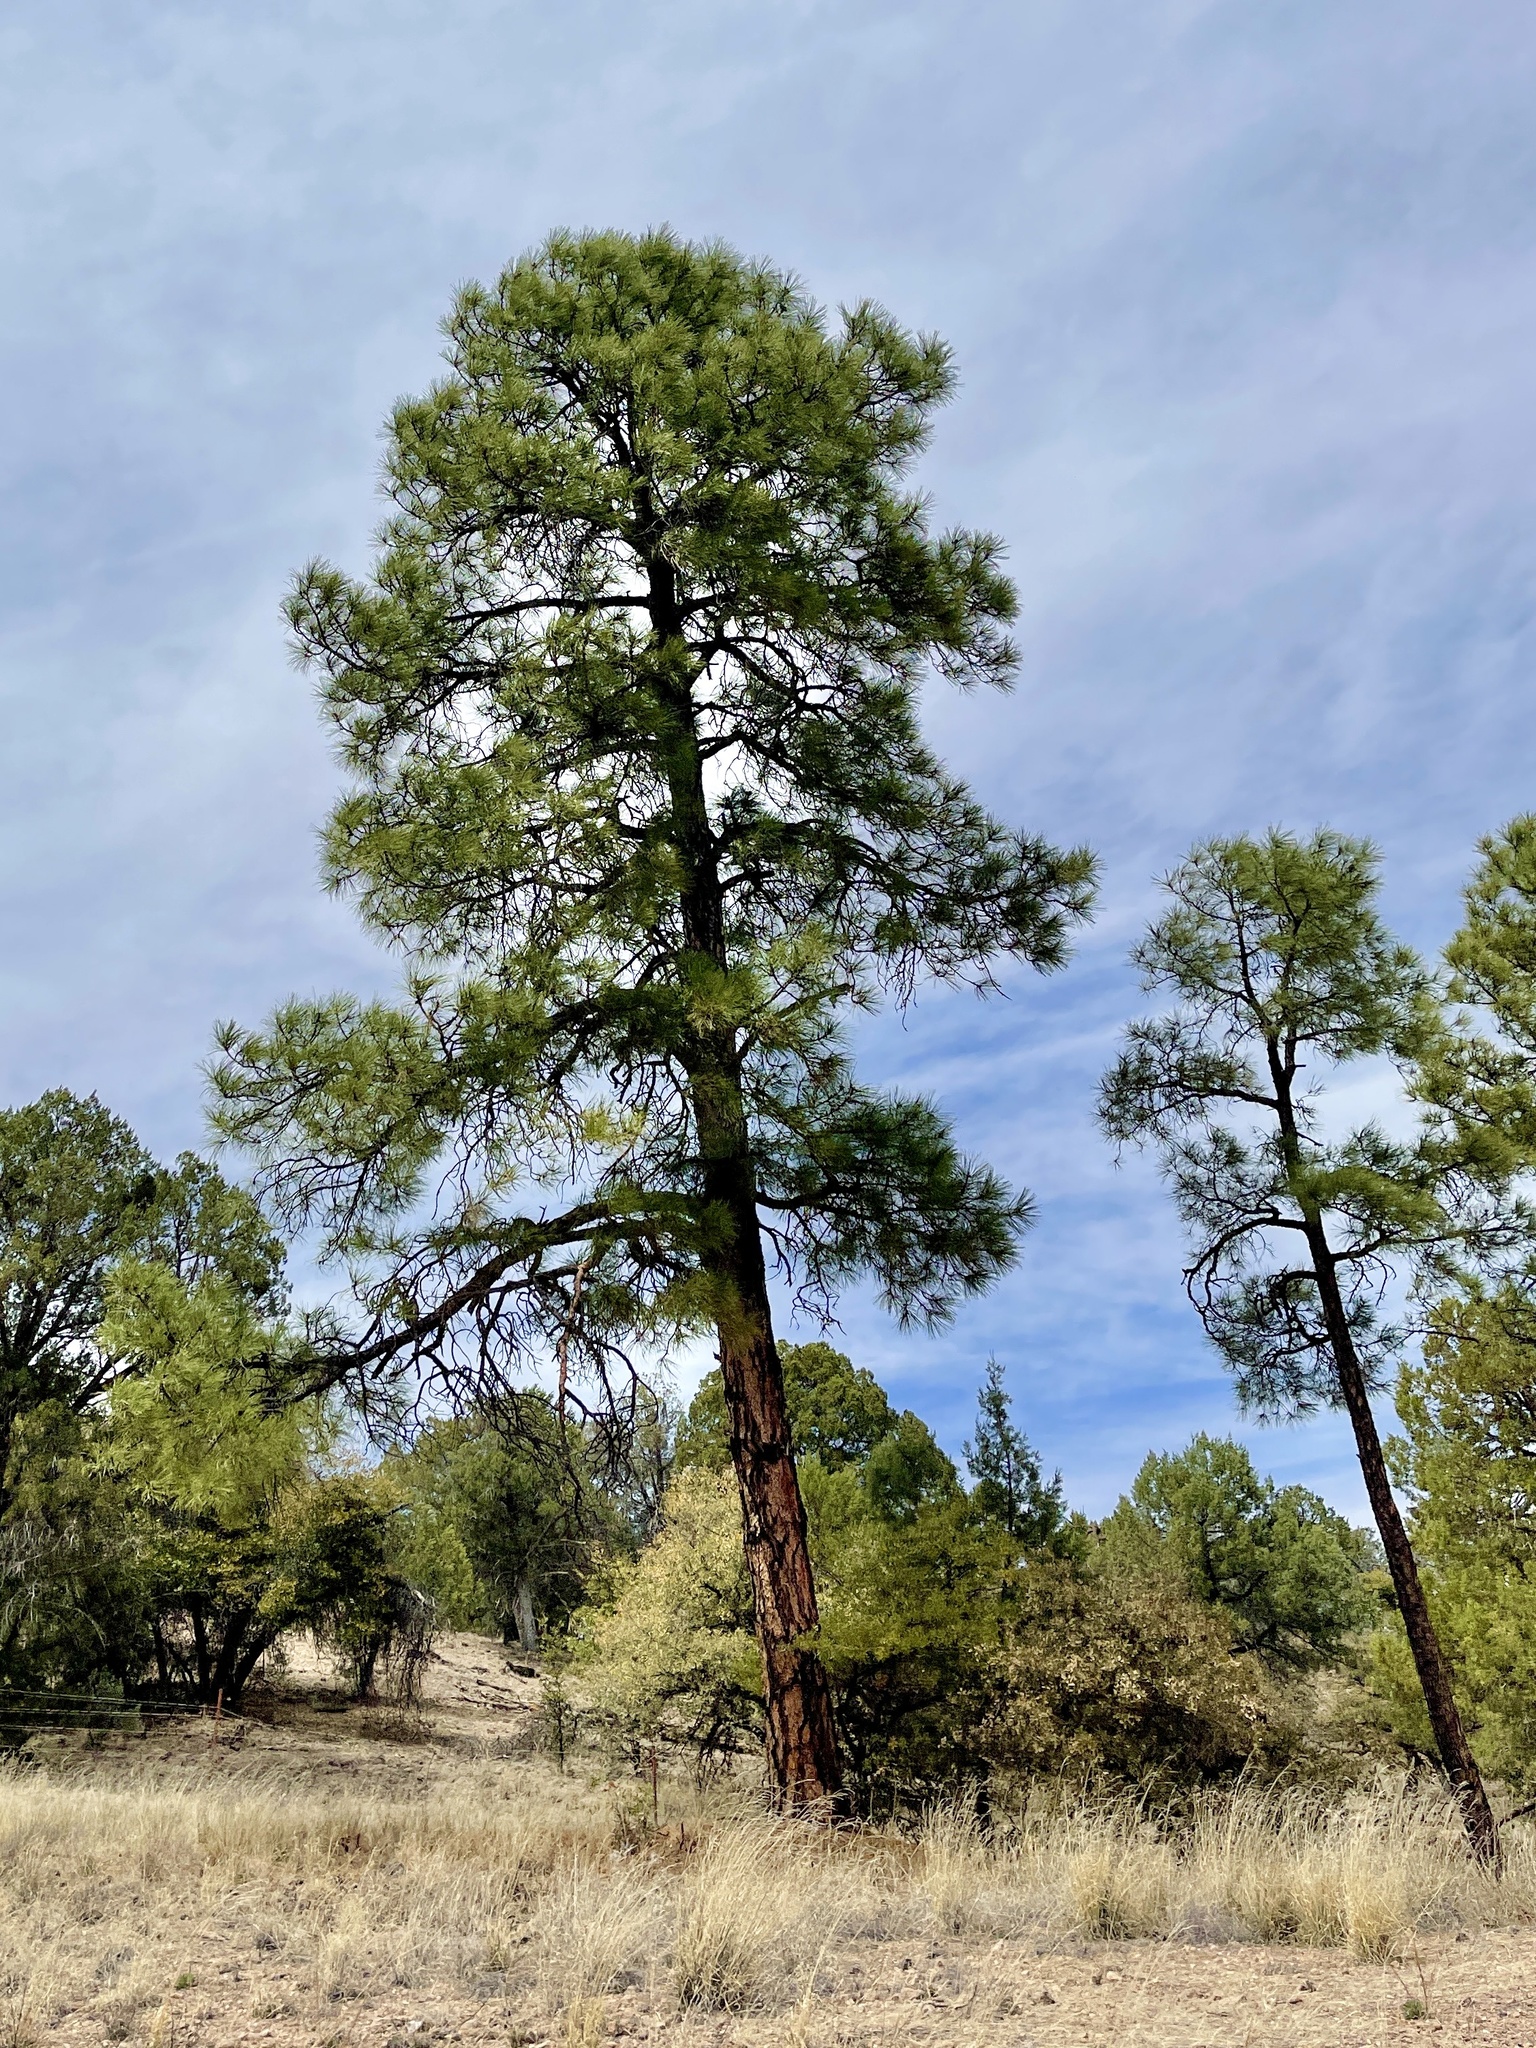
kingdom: Plantae
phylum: Tracheophyta
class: Pinopsida
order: Pinales
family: Pinaceae
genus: Pinus
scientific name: Pinus ponderosa
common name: Western yellow-pine
